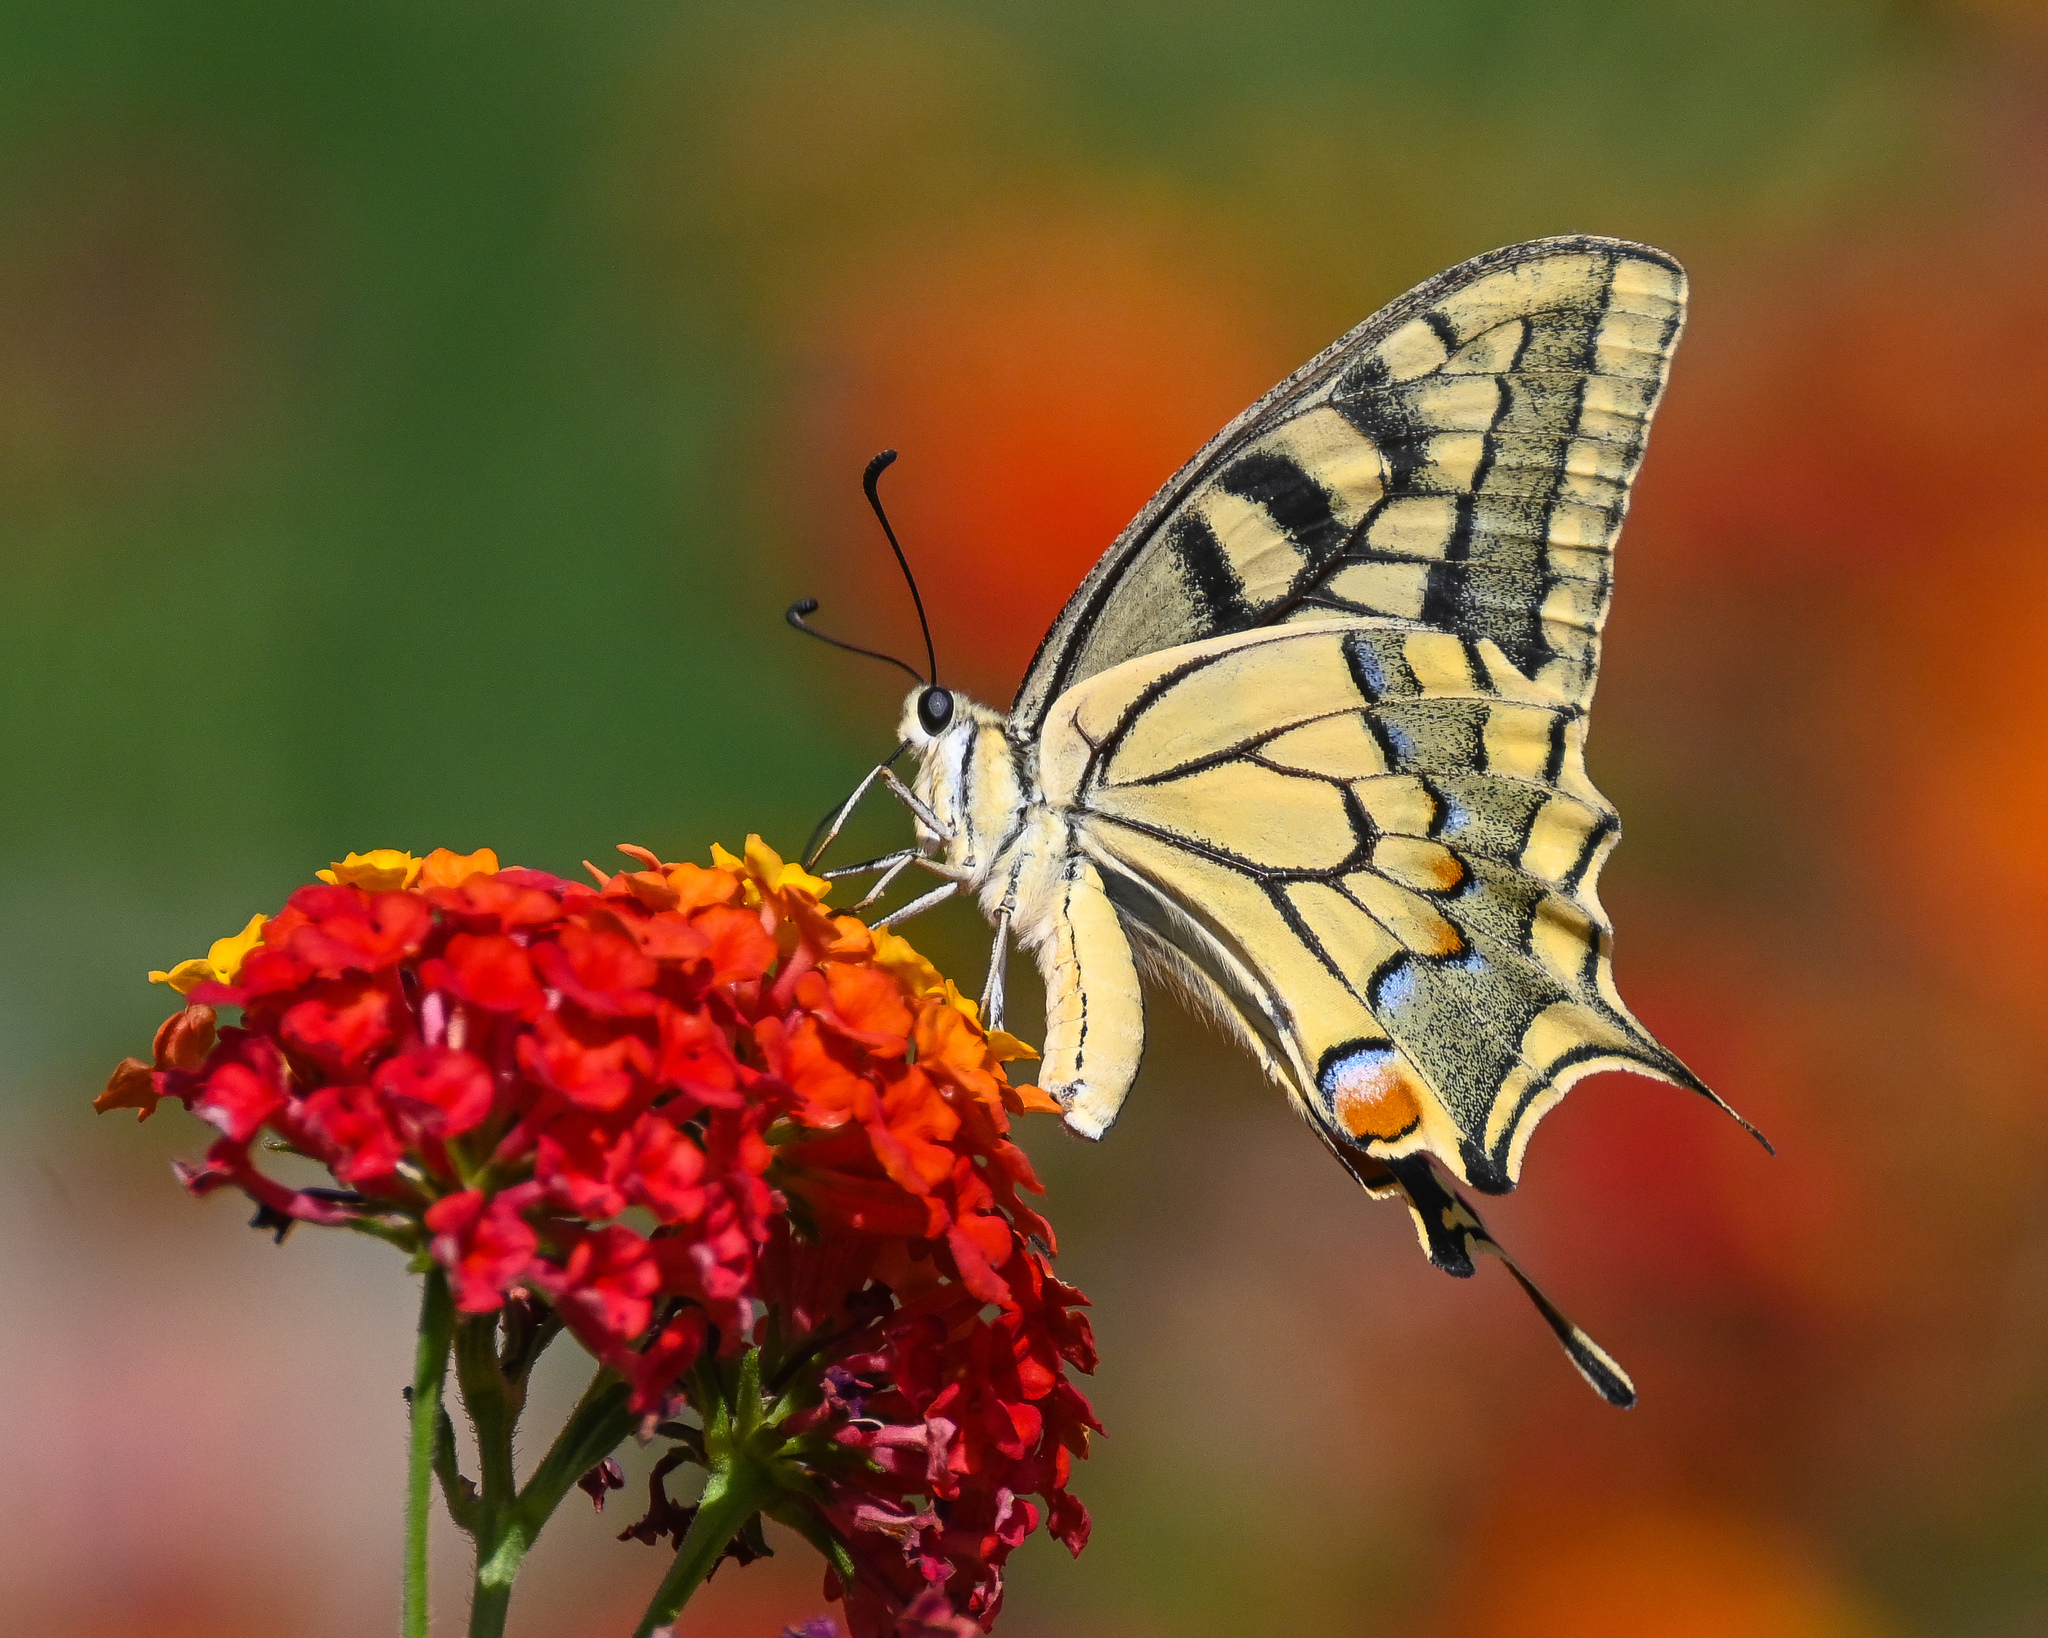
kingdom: Animalia
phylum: Arthropoda
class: Insecta
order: Lepidoptera
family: Papilionidae
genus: Papilio
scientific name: Papilio machaon
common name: Swallowtail
